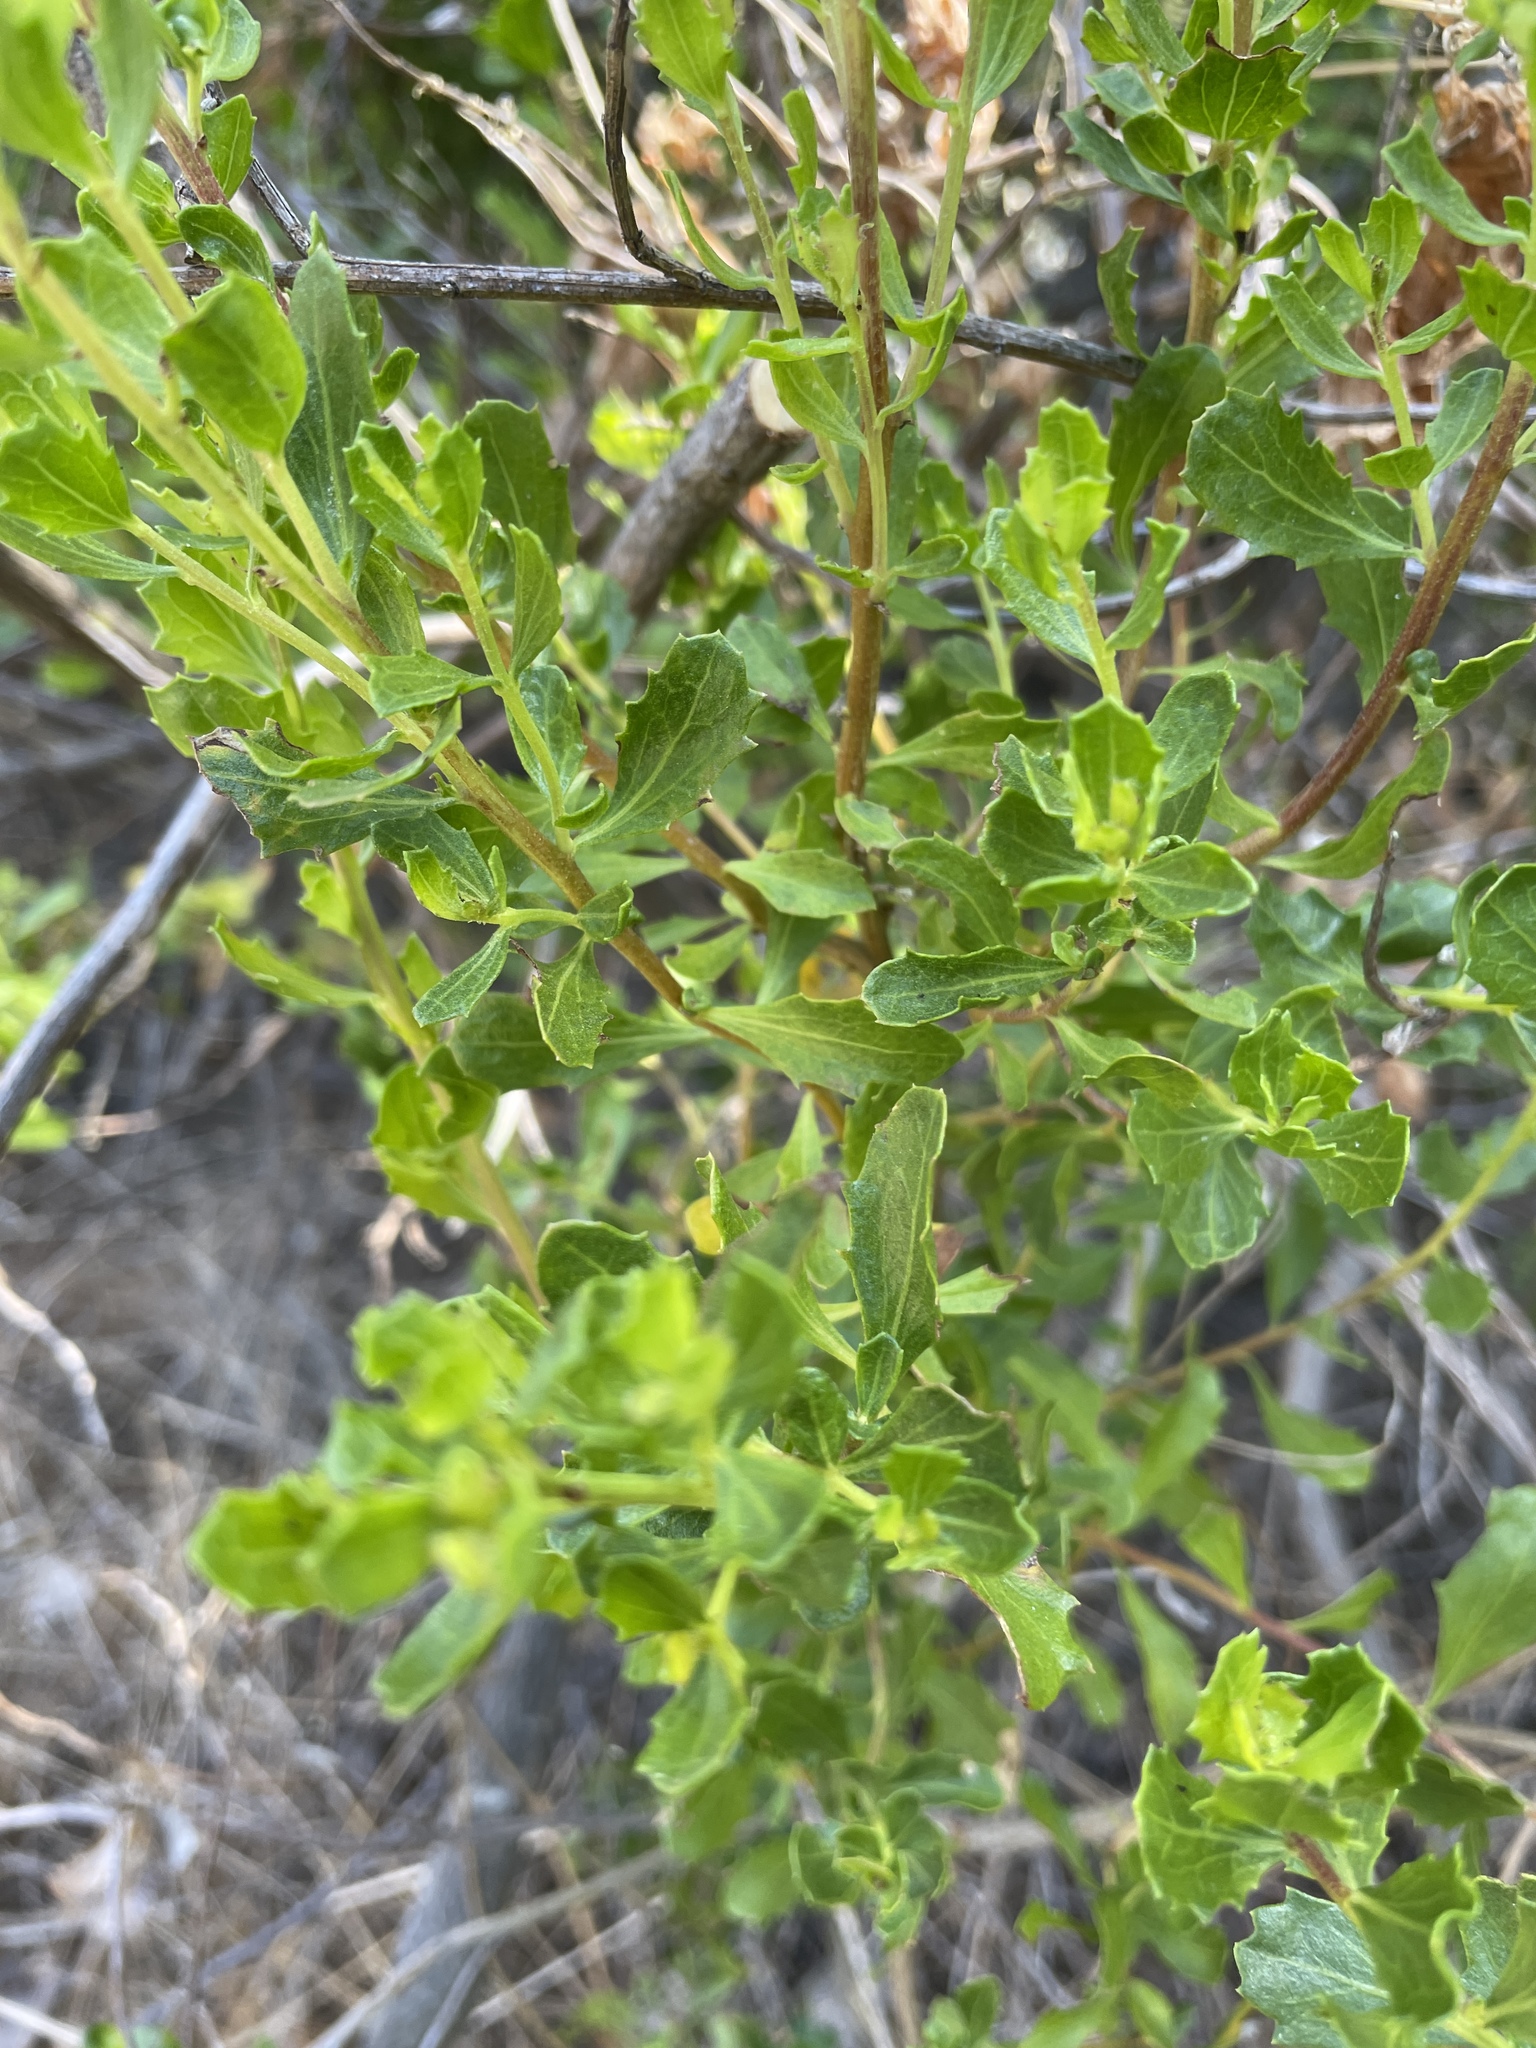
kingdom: Plantae
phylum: Tracheophyta
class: Magnoliopsida
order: Asterales
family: Asteraceae
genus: Baccharis
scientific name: Baccharis pilularis
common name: Coyotebrush
